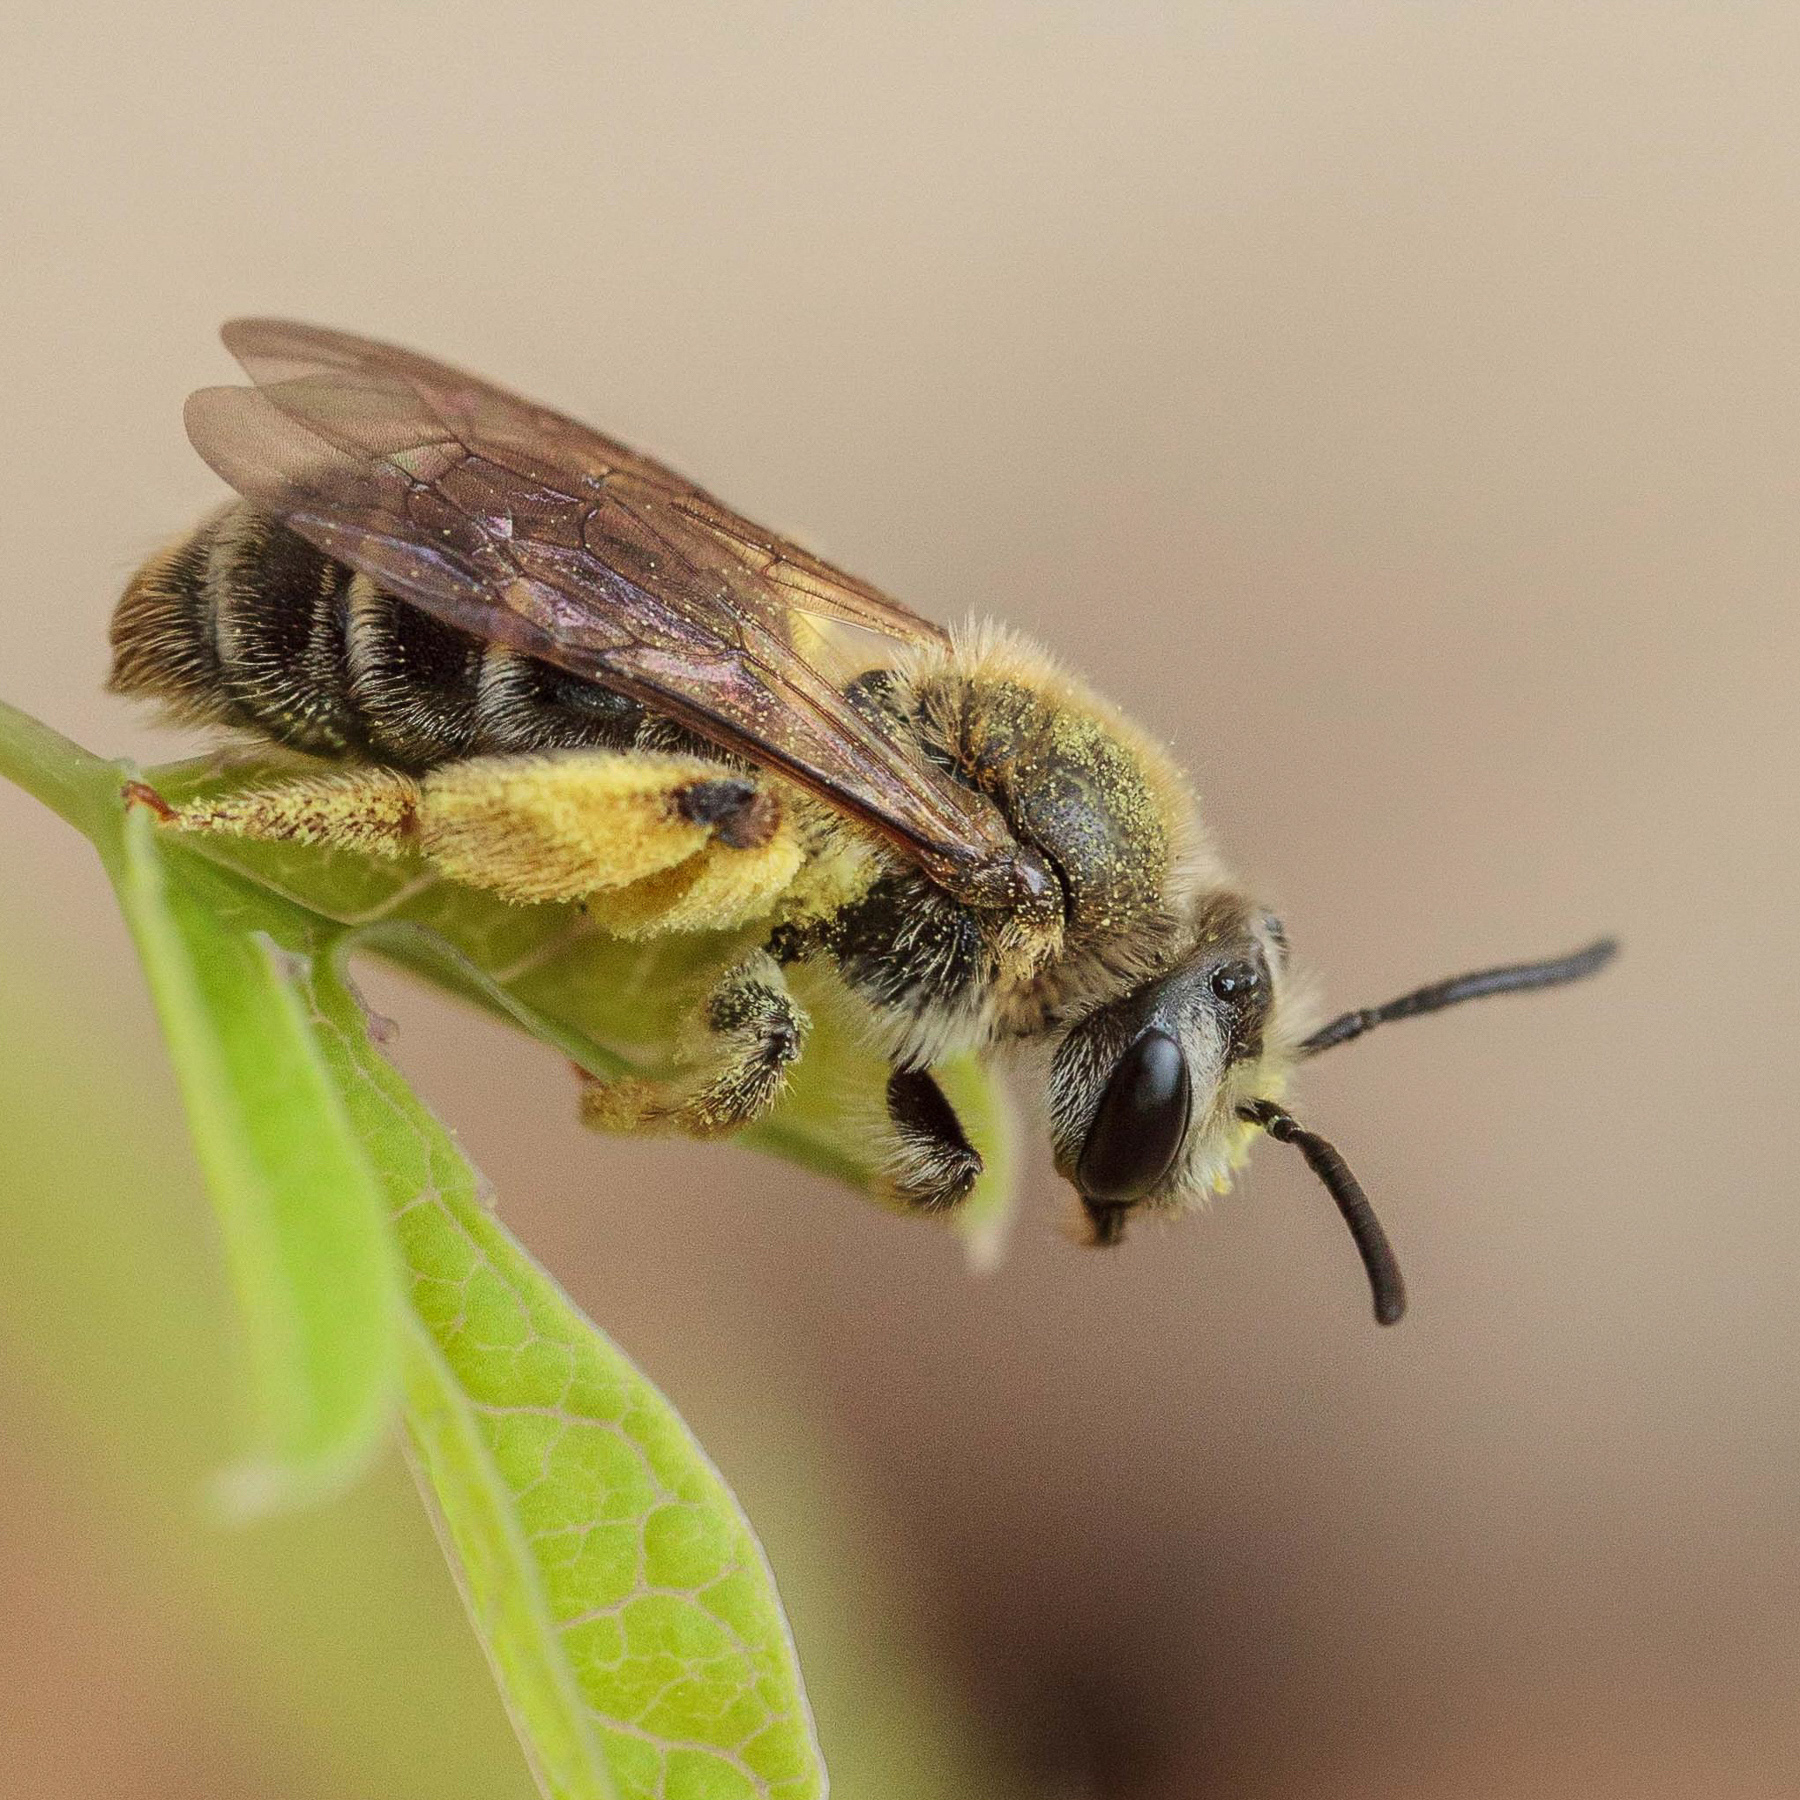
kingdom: Animalia
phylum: Arthropoda
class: Insecta
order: Hymenoptera
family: Andrenidae
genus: Andrena
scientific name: Andrena
